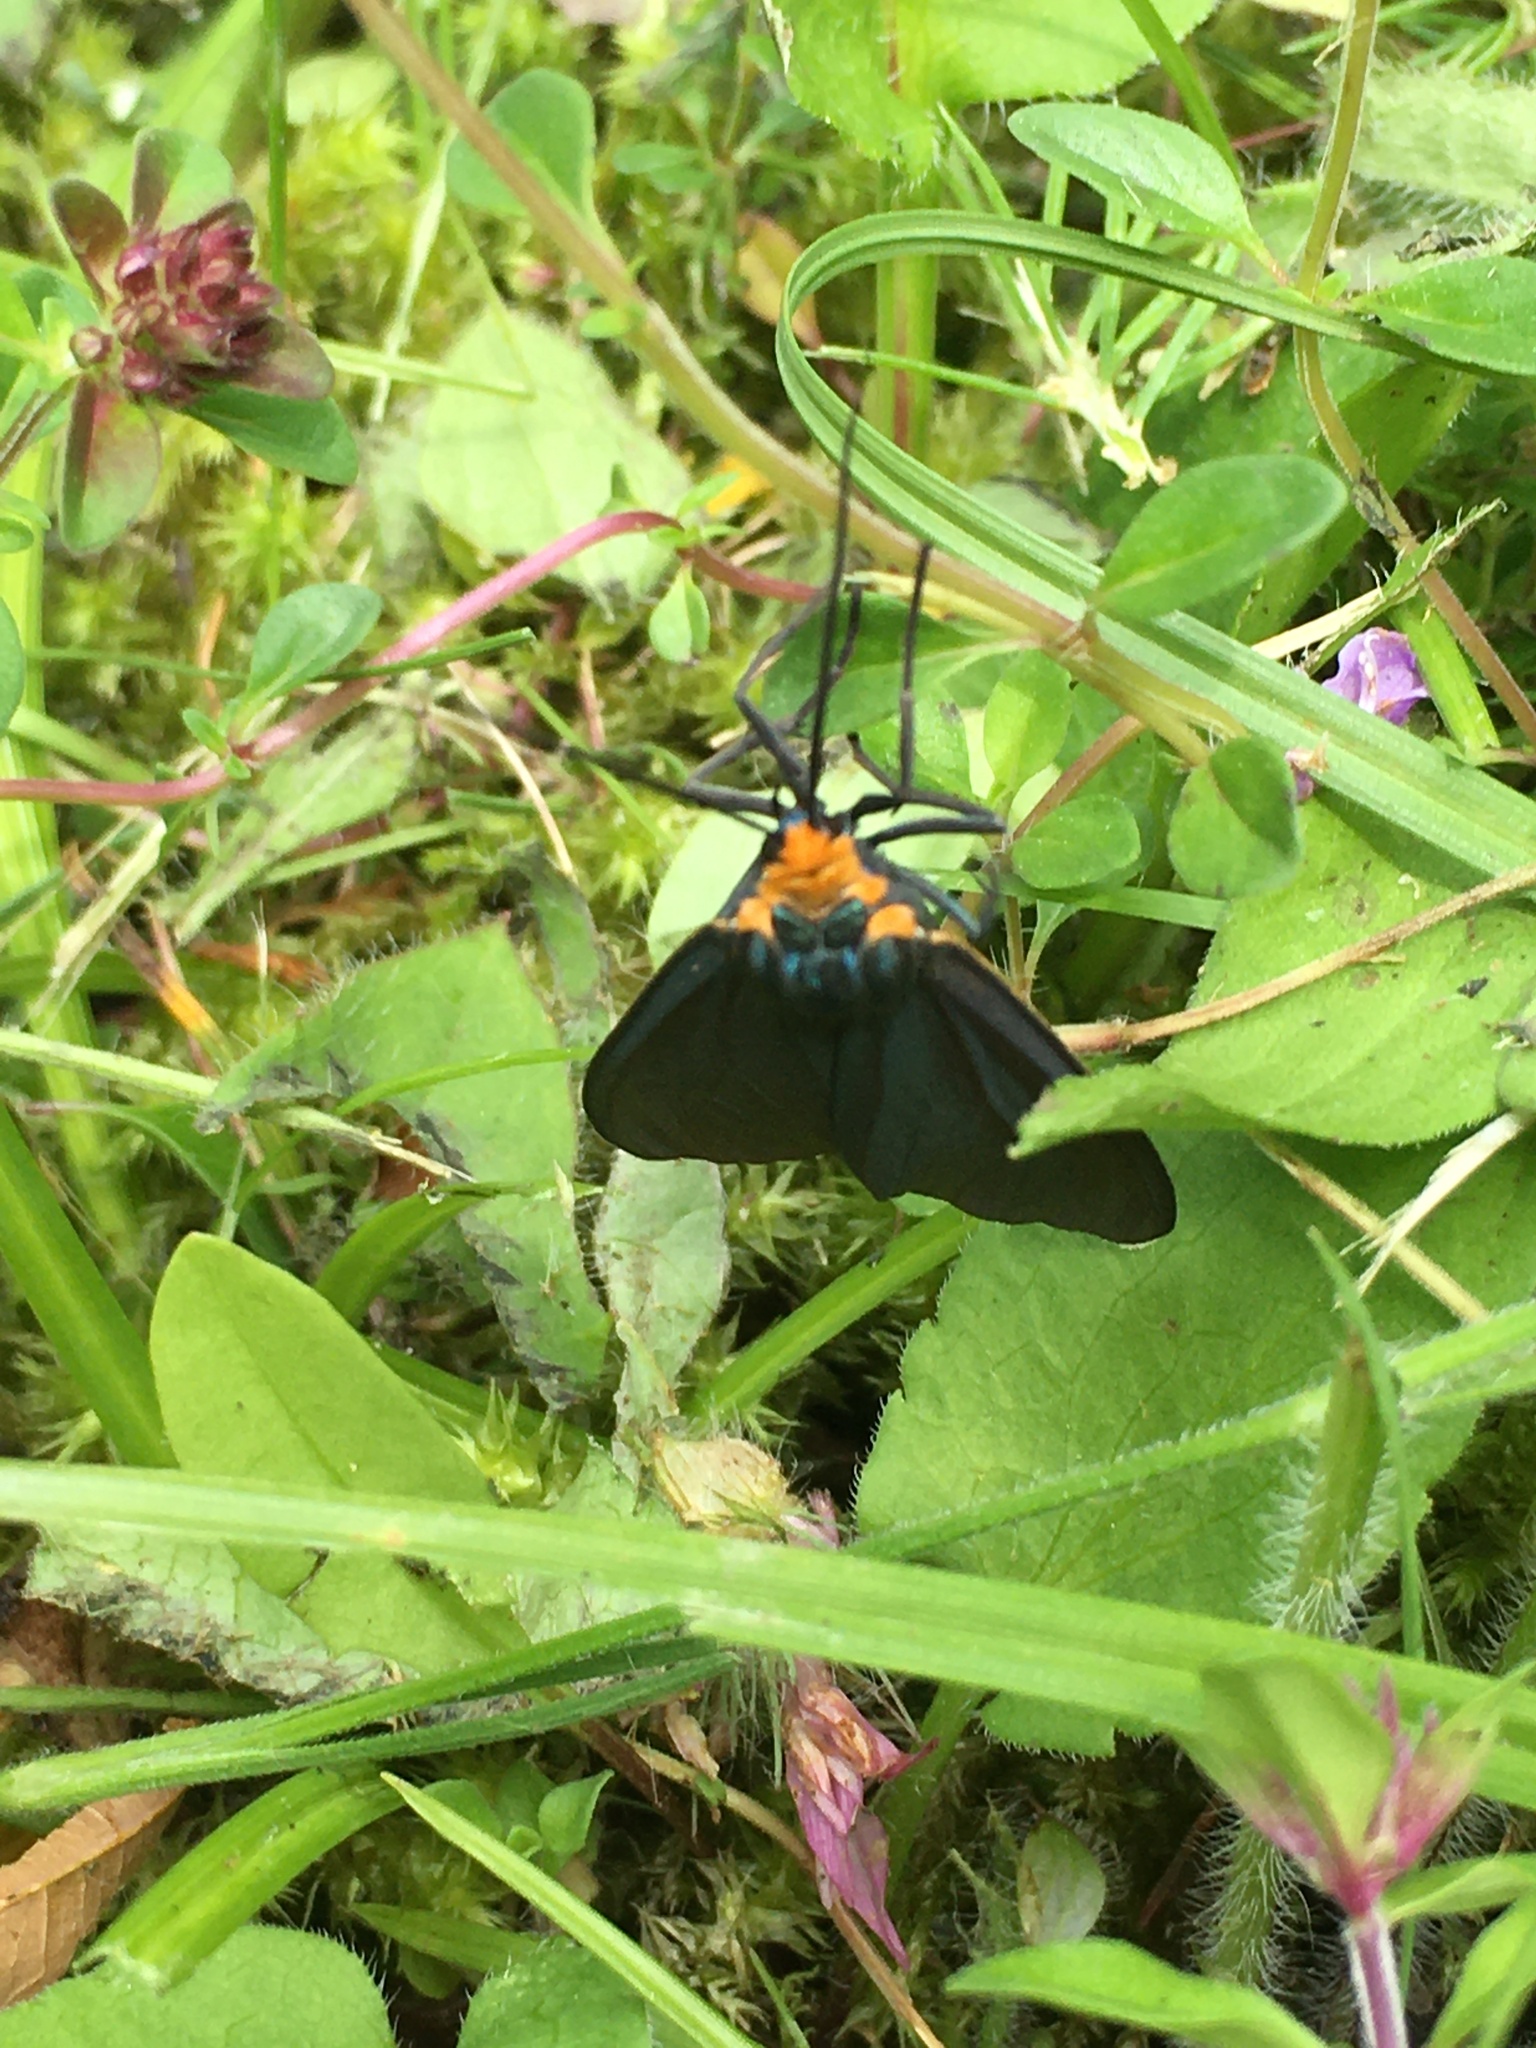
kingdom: Animalia
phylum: Arthropoda
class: Insecta
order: Lepidoptera
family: Erebidae
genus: Ctenucha
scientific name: Ctenucha virginica
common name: Virginia ctenucha moth
